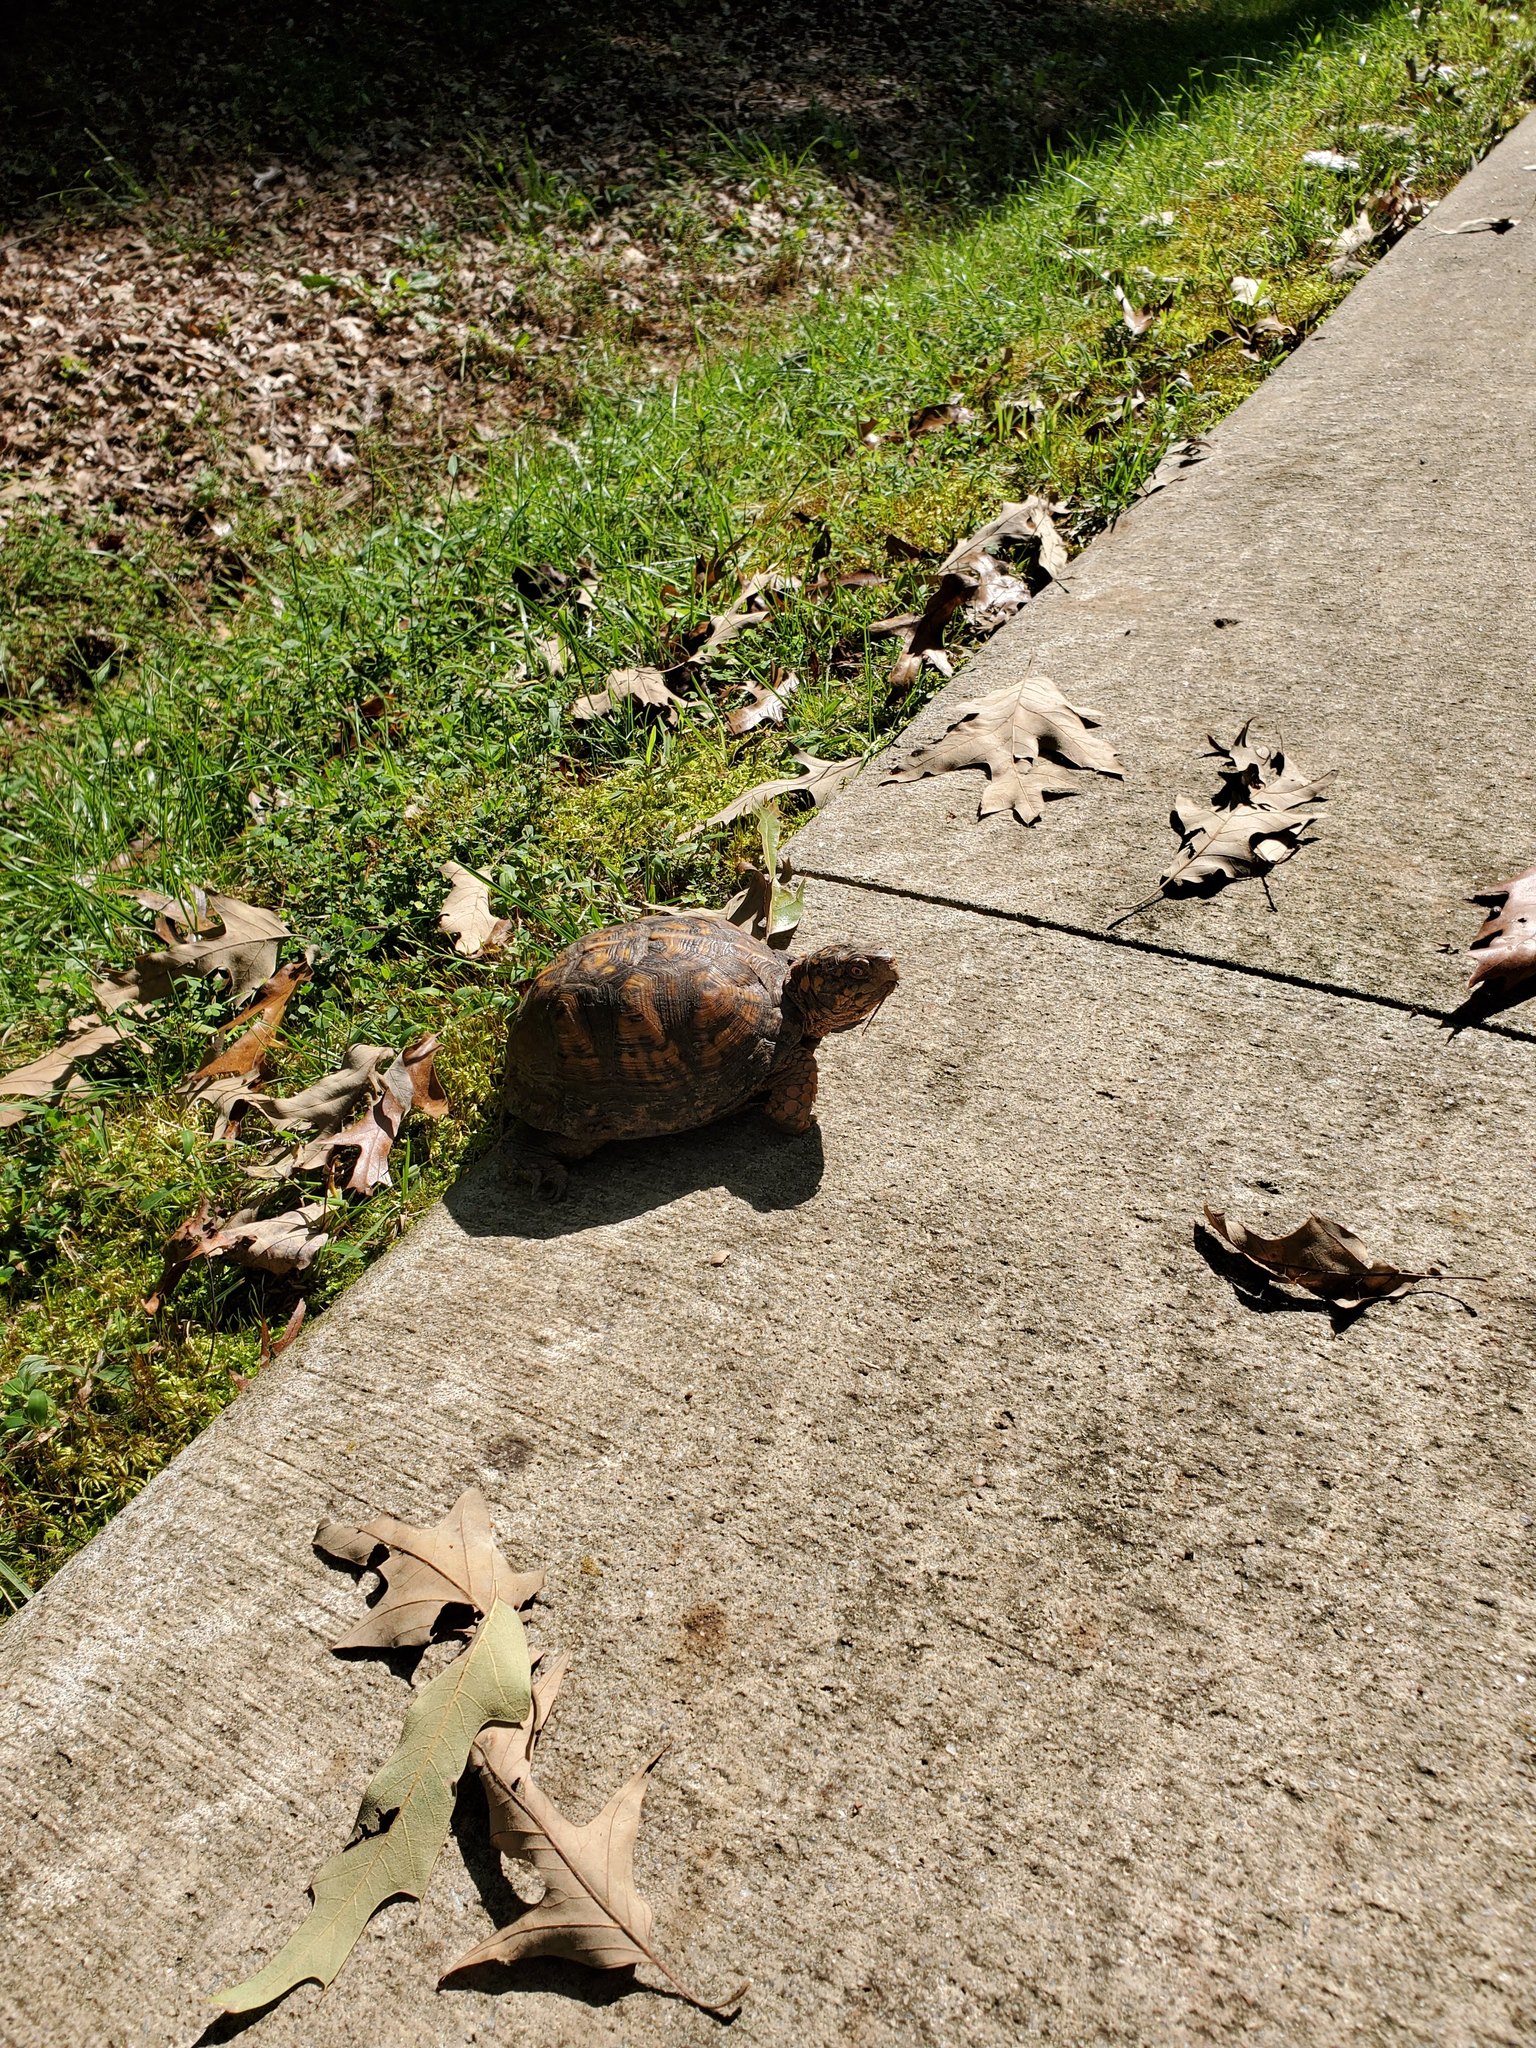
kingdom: Animalia
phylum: Chordata
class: Testudines
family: Emydidae
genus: Terrapene
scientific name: Terrapene carolina
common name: Common box turtle
